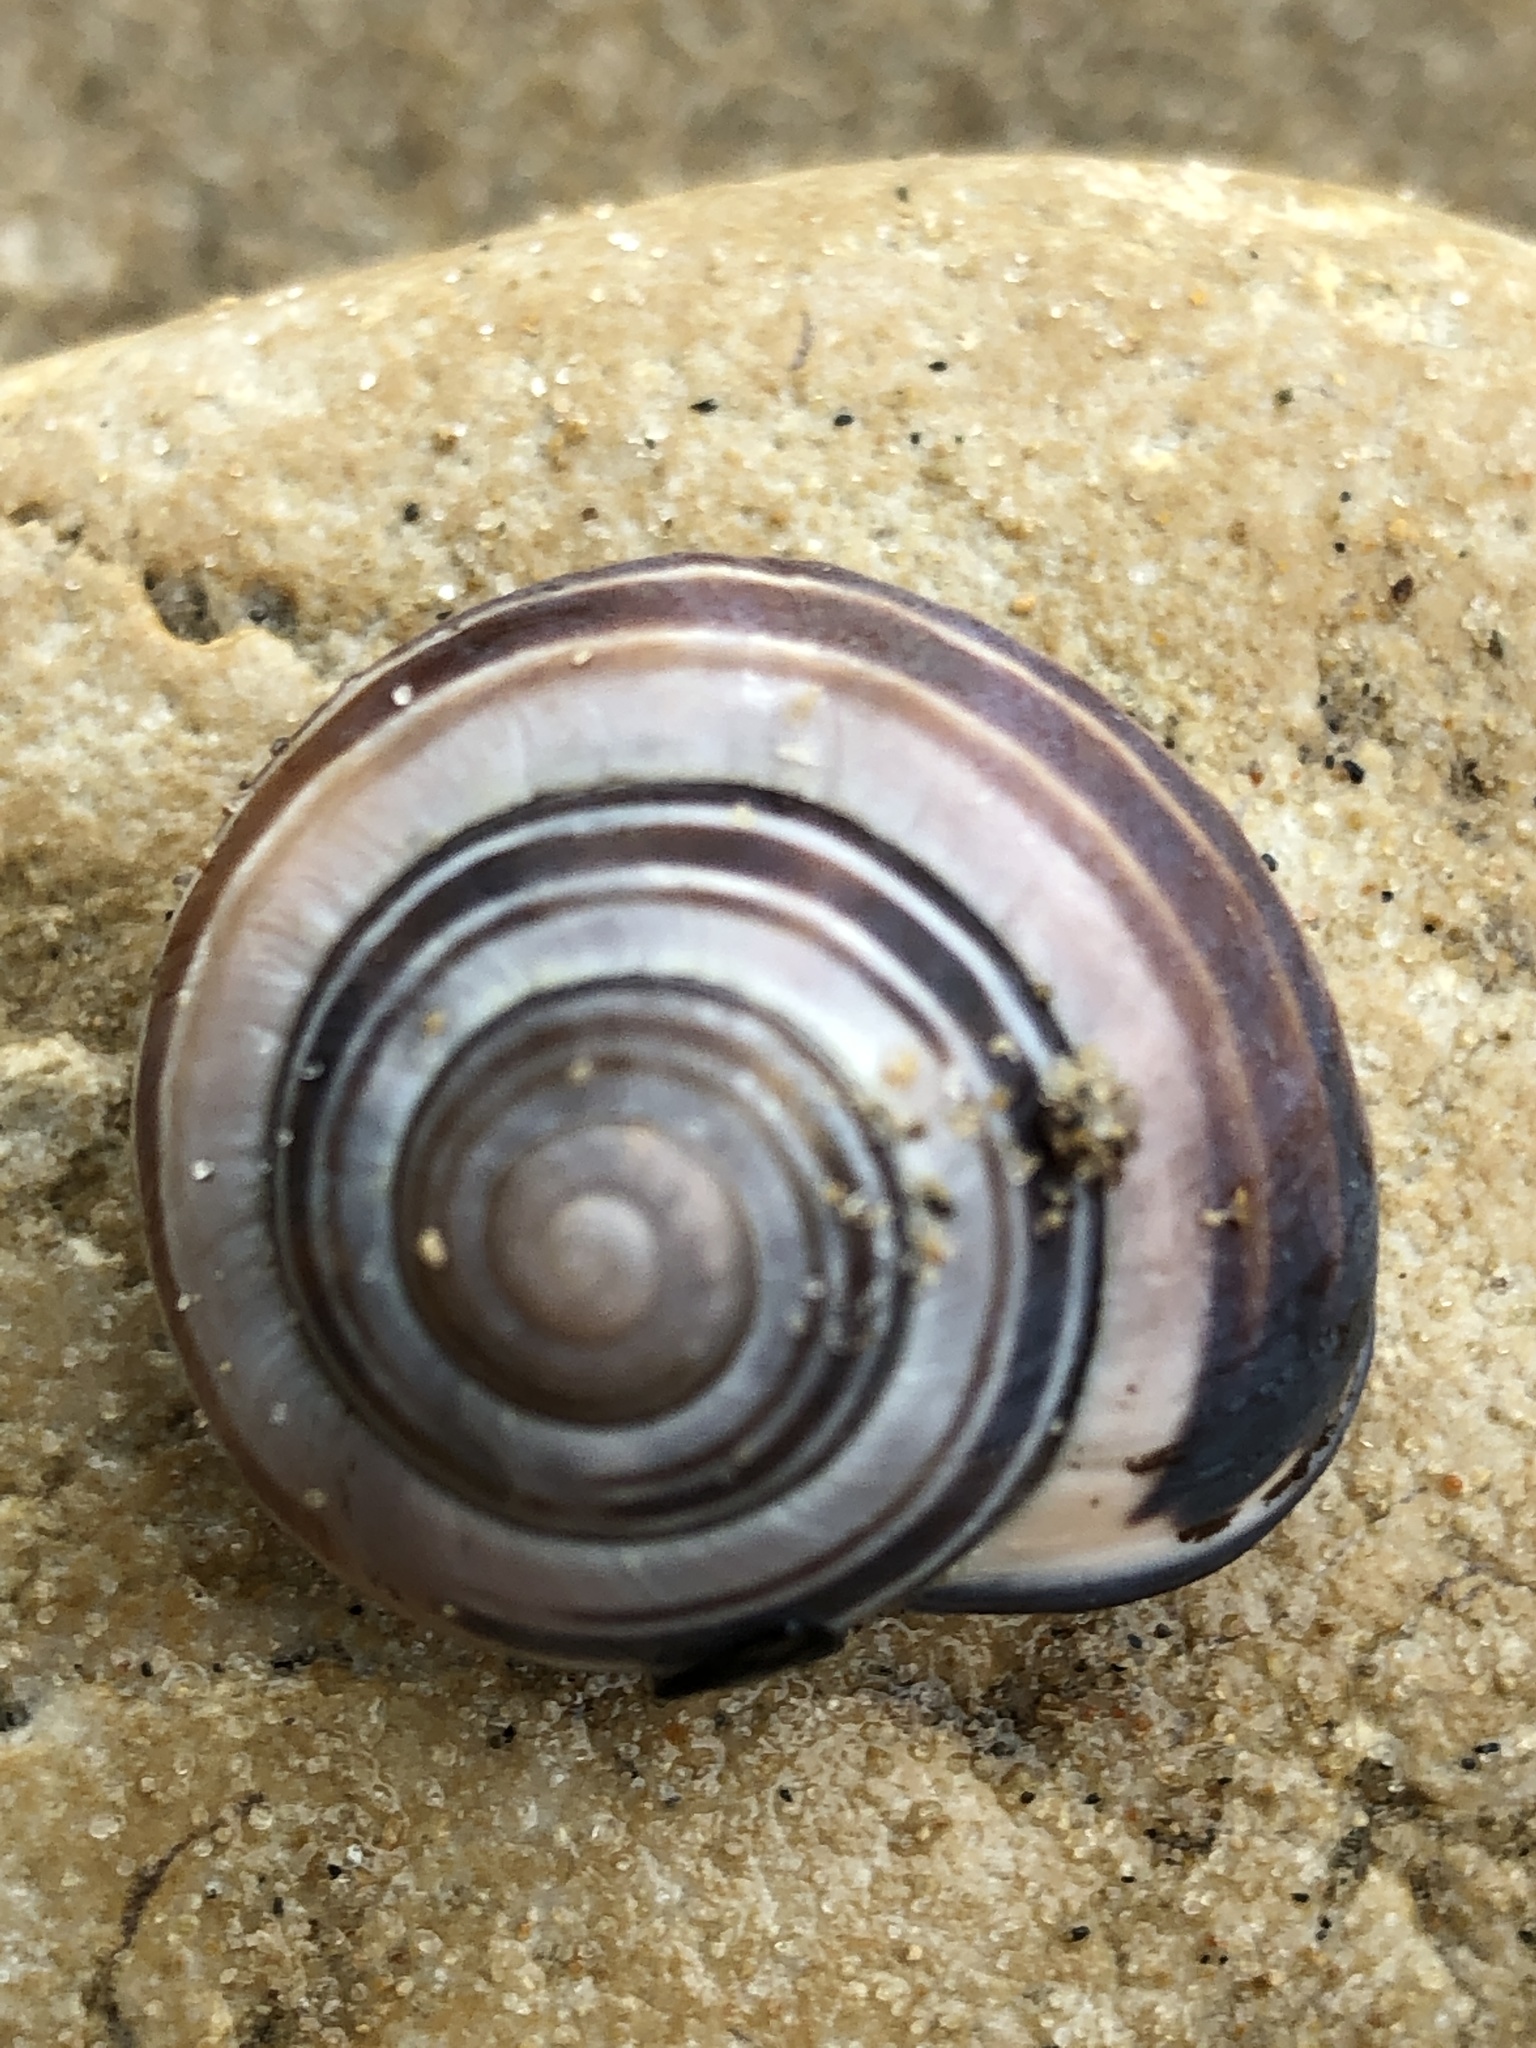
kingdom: Animalia
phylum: Mollusca
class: Gastropoda
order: Stylommatophora
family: Helicidae
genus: Cepaea
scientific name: Cepaea nemoralis
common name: Grovesnail
